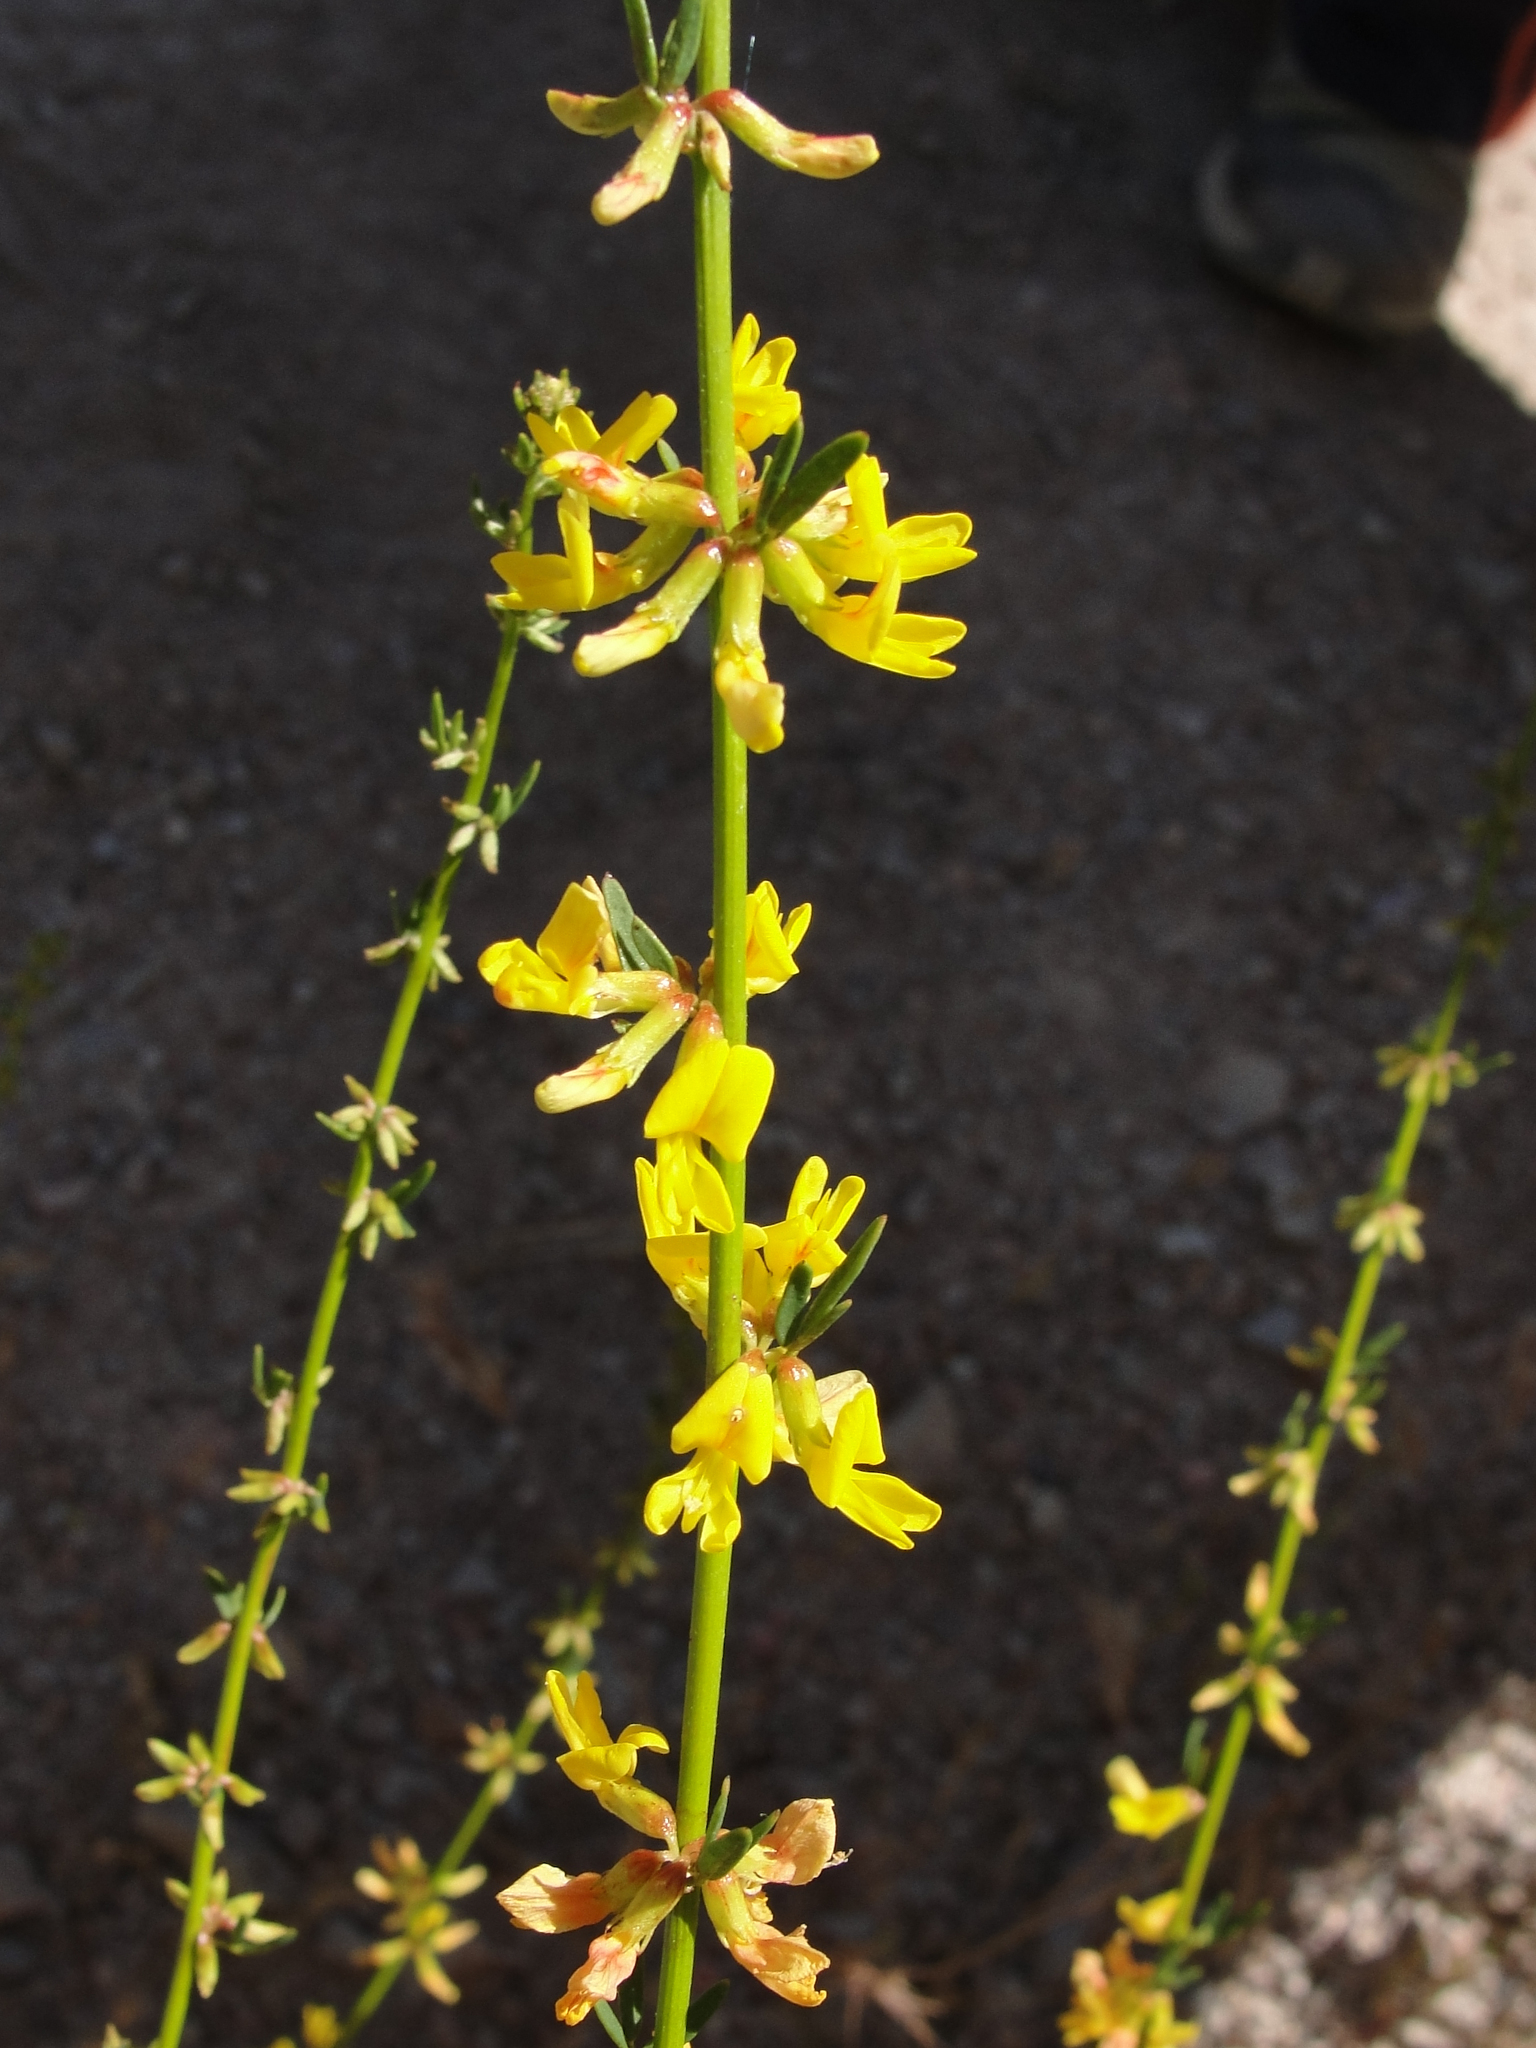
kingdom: Plantae
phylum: Tracheophyta
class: Magnoliopsida
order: Fabales
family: Fabaceae
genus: Acmispon
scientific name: Acmispon glaber
